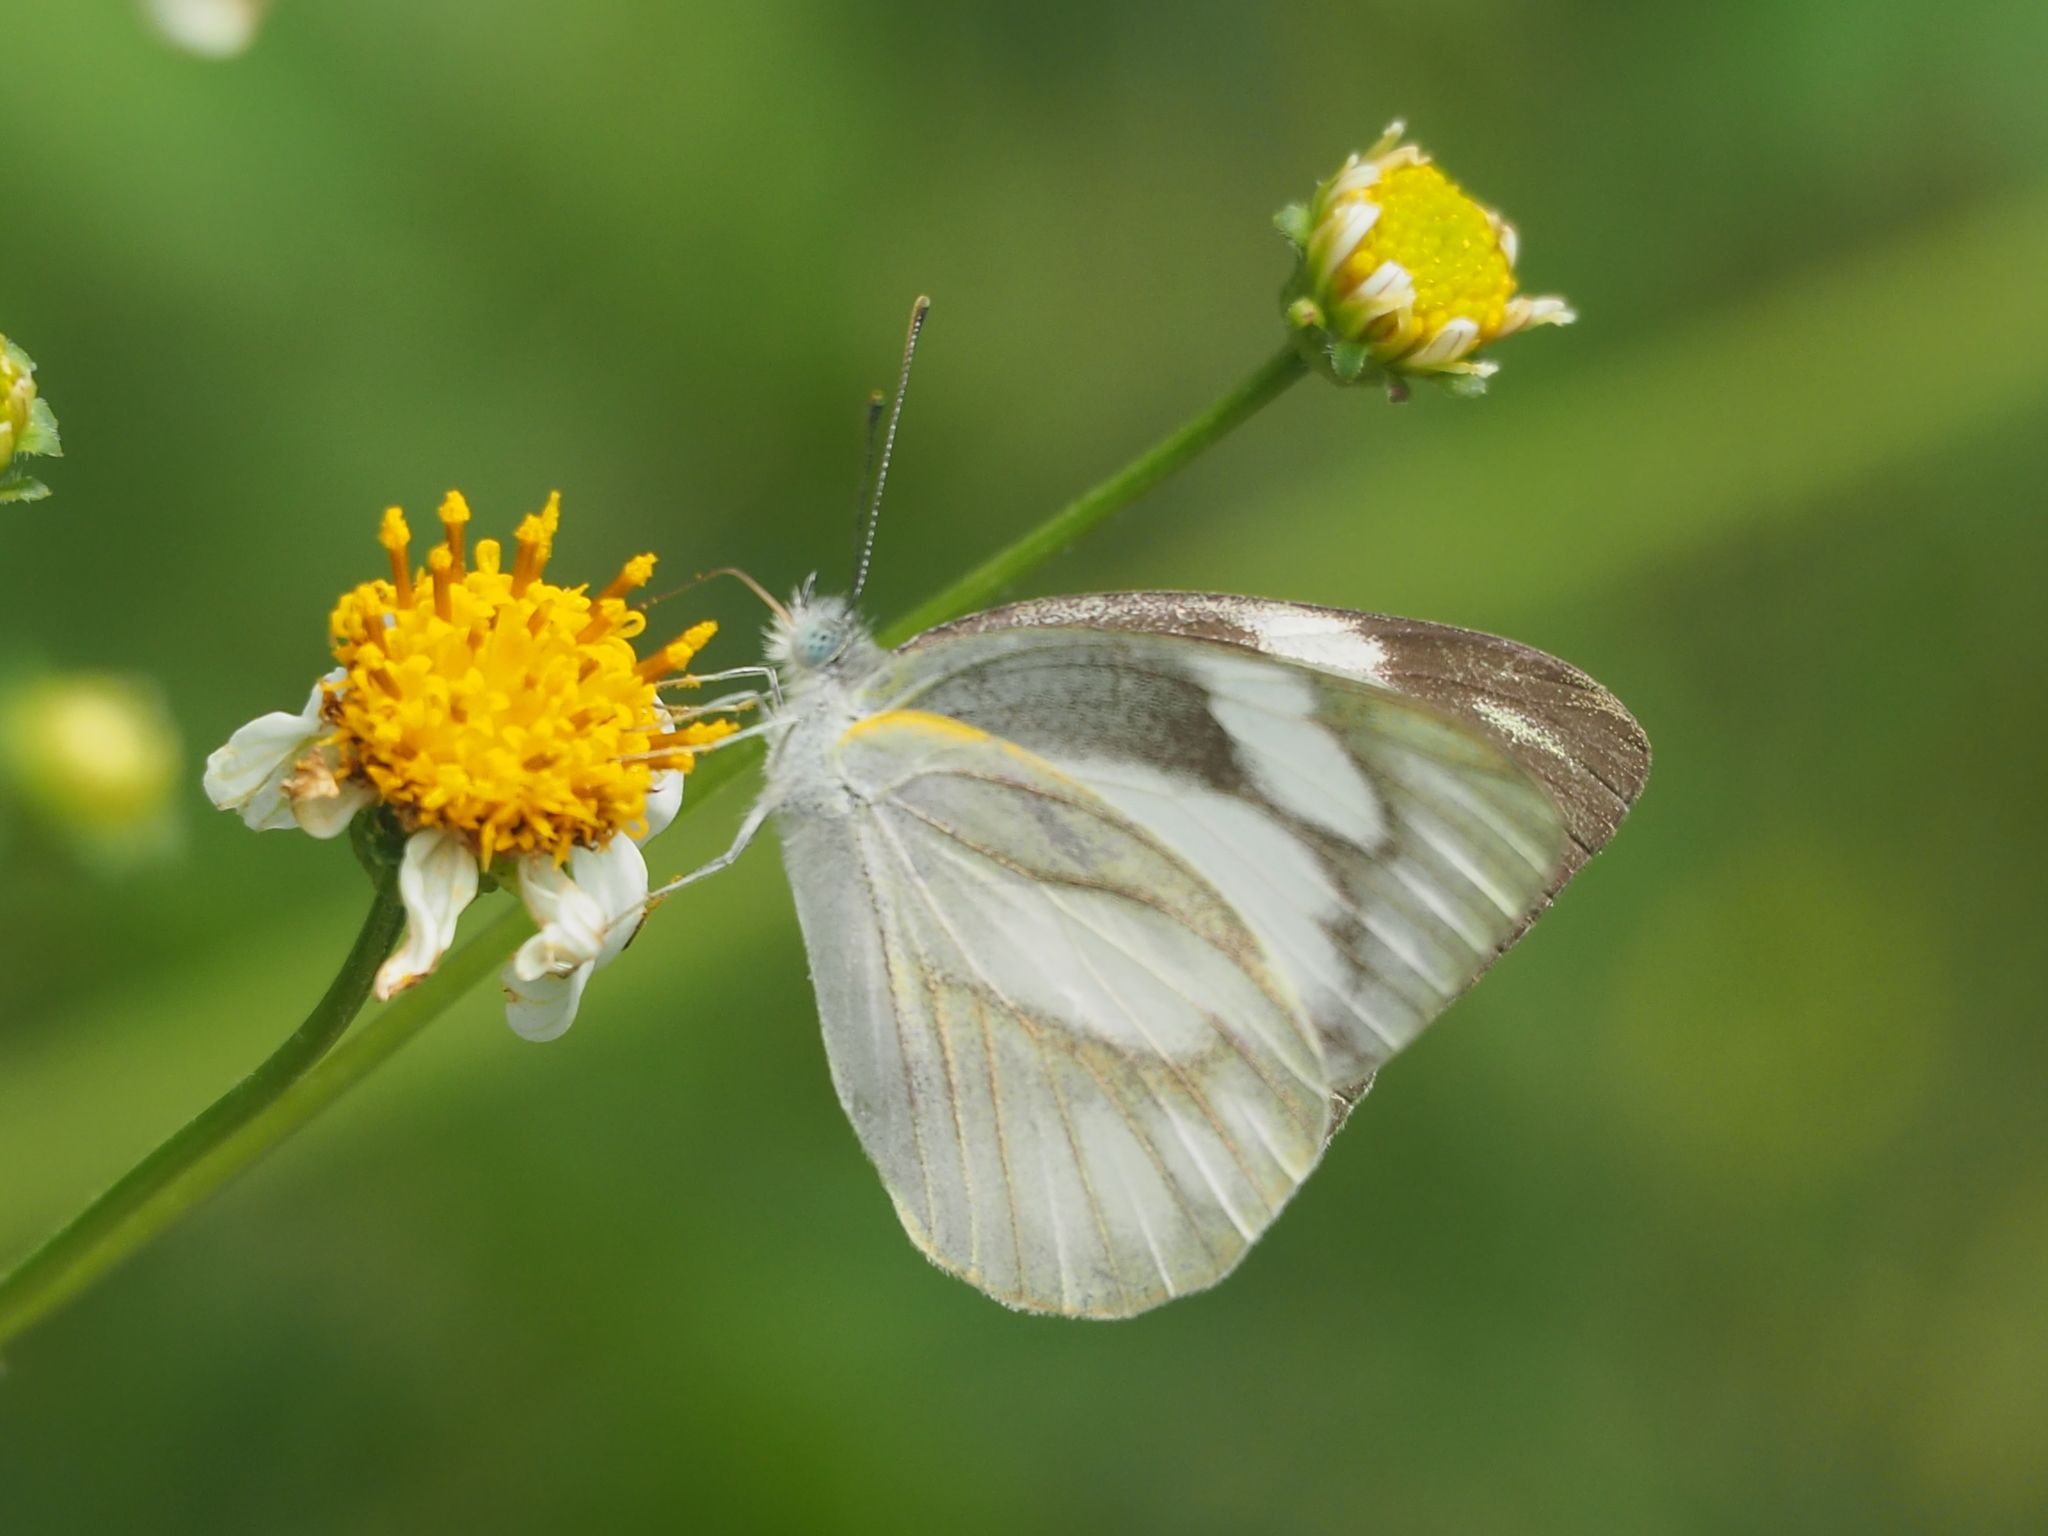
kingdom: Animalia
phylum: Arthropoda
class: Insecta
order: Lepidoptera
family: Pieridae
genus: Appias
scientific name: Appias libythea
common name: Striped albatross
